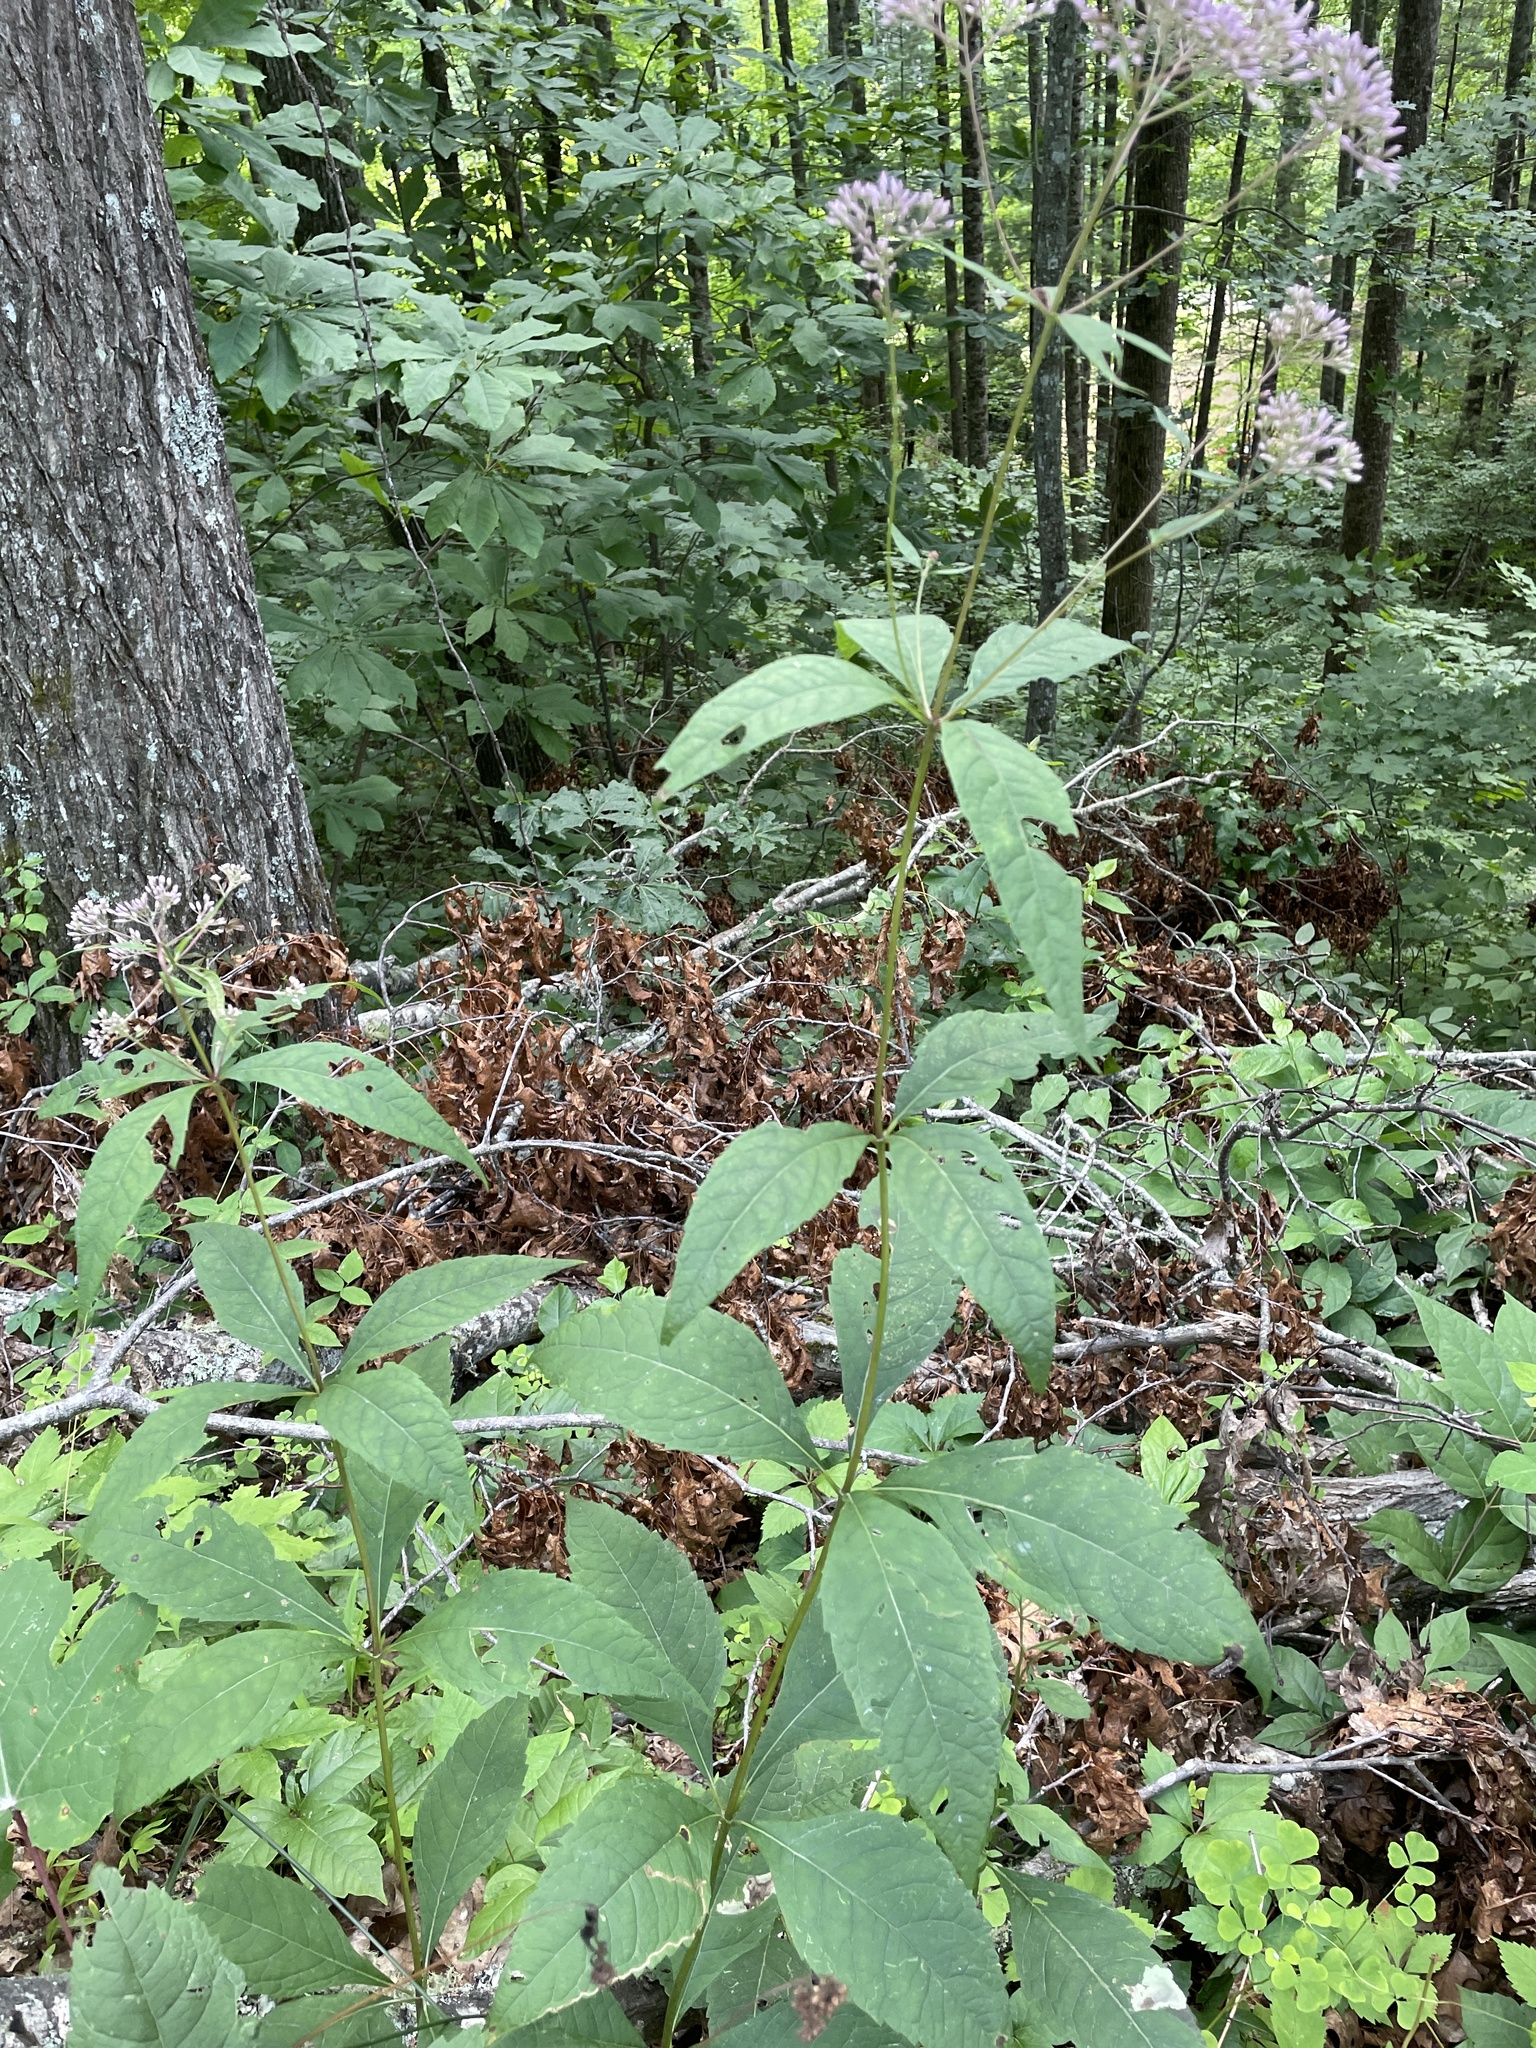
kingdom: Plantae
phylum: Tracheophyta
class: Magnoliopsida
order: Asterales
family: Asteraceae
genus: Eutrochium
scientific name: Eutrochium purpureum
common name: Gravelroot
